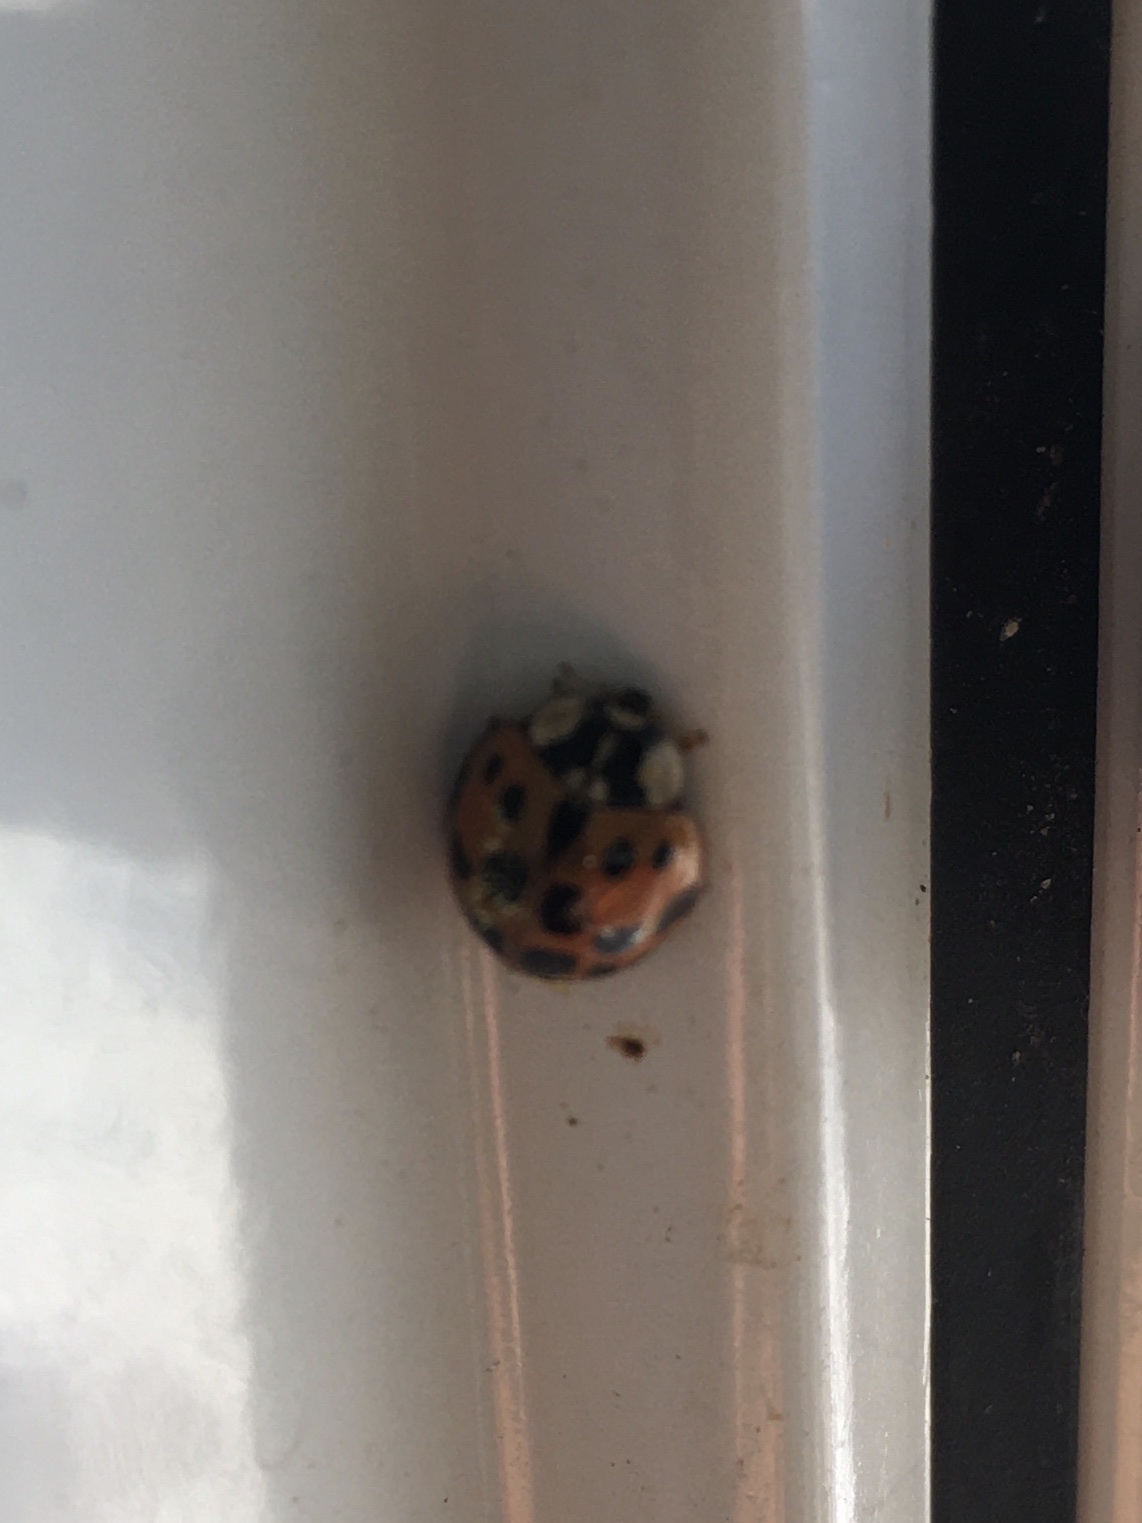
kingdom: Animalia
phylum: Arthropoda
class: Insecta
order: Coleoptera
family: Coccinellidae
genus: Harmonia
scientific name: Harmonia axyridis
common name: Harlequin ladybird
